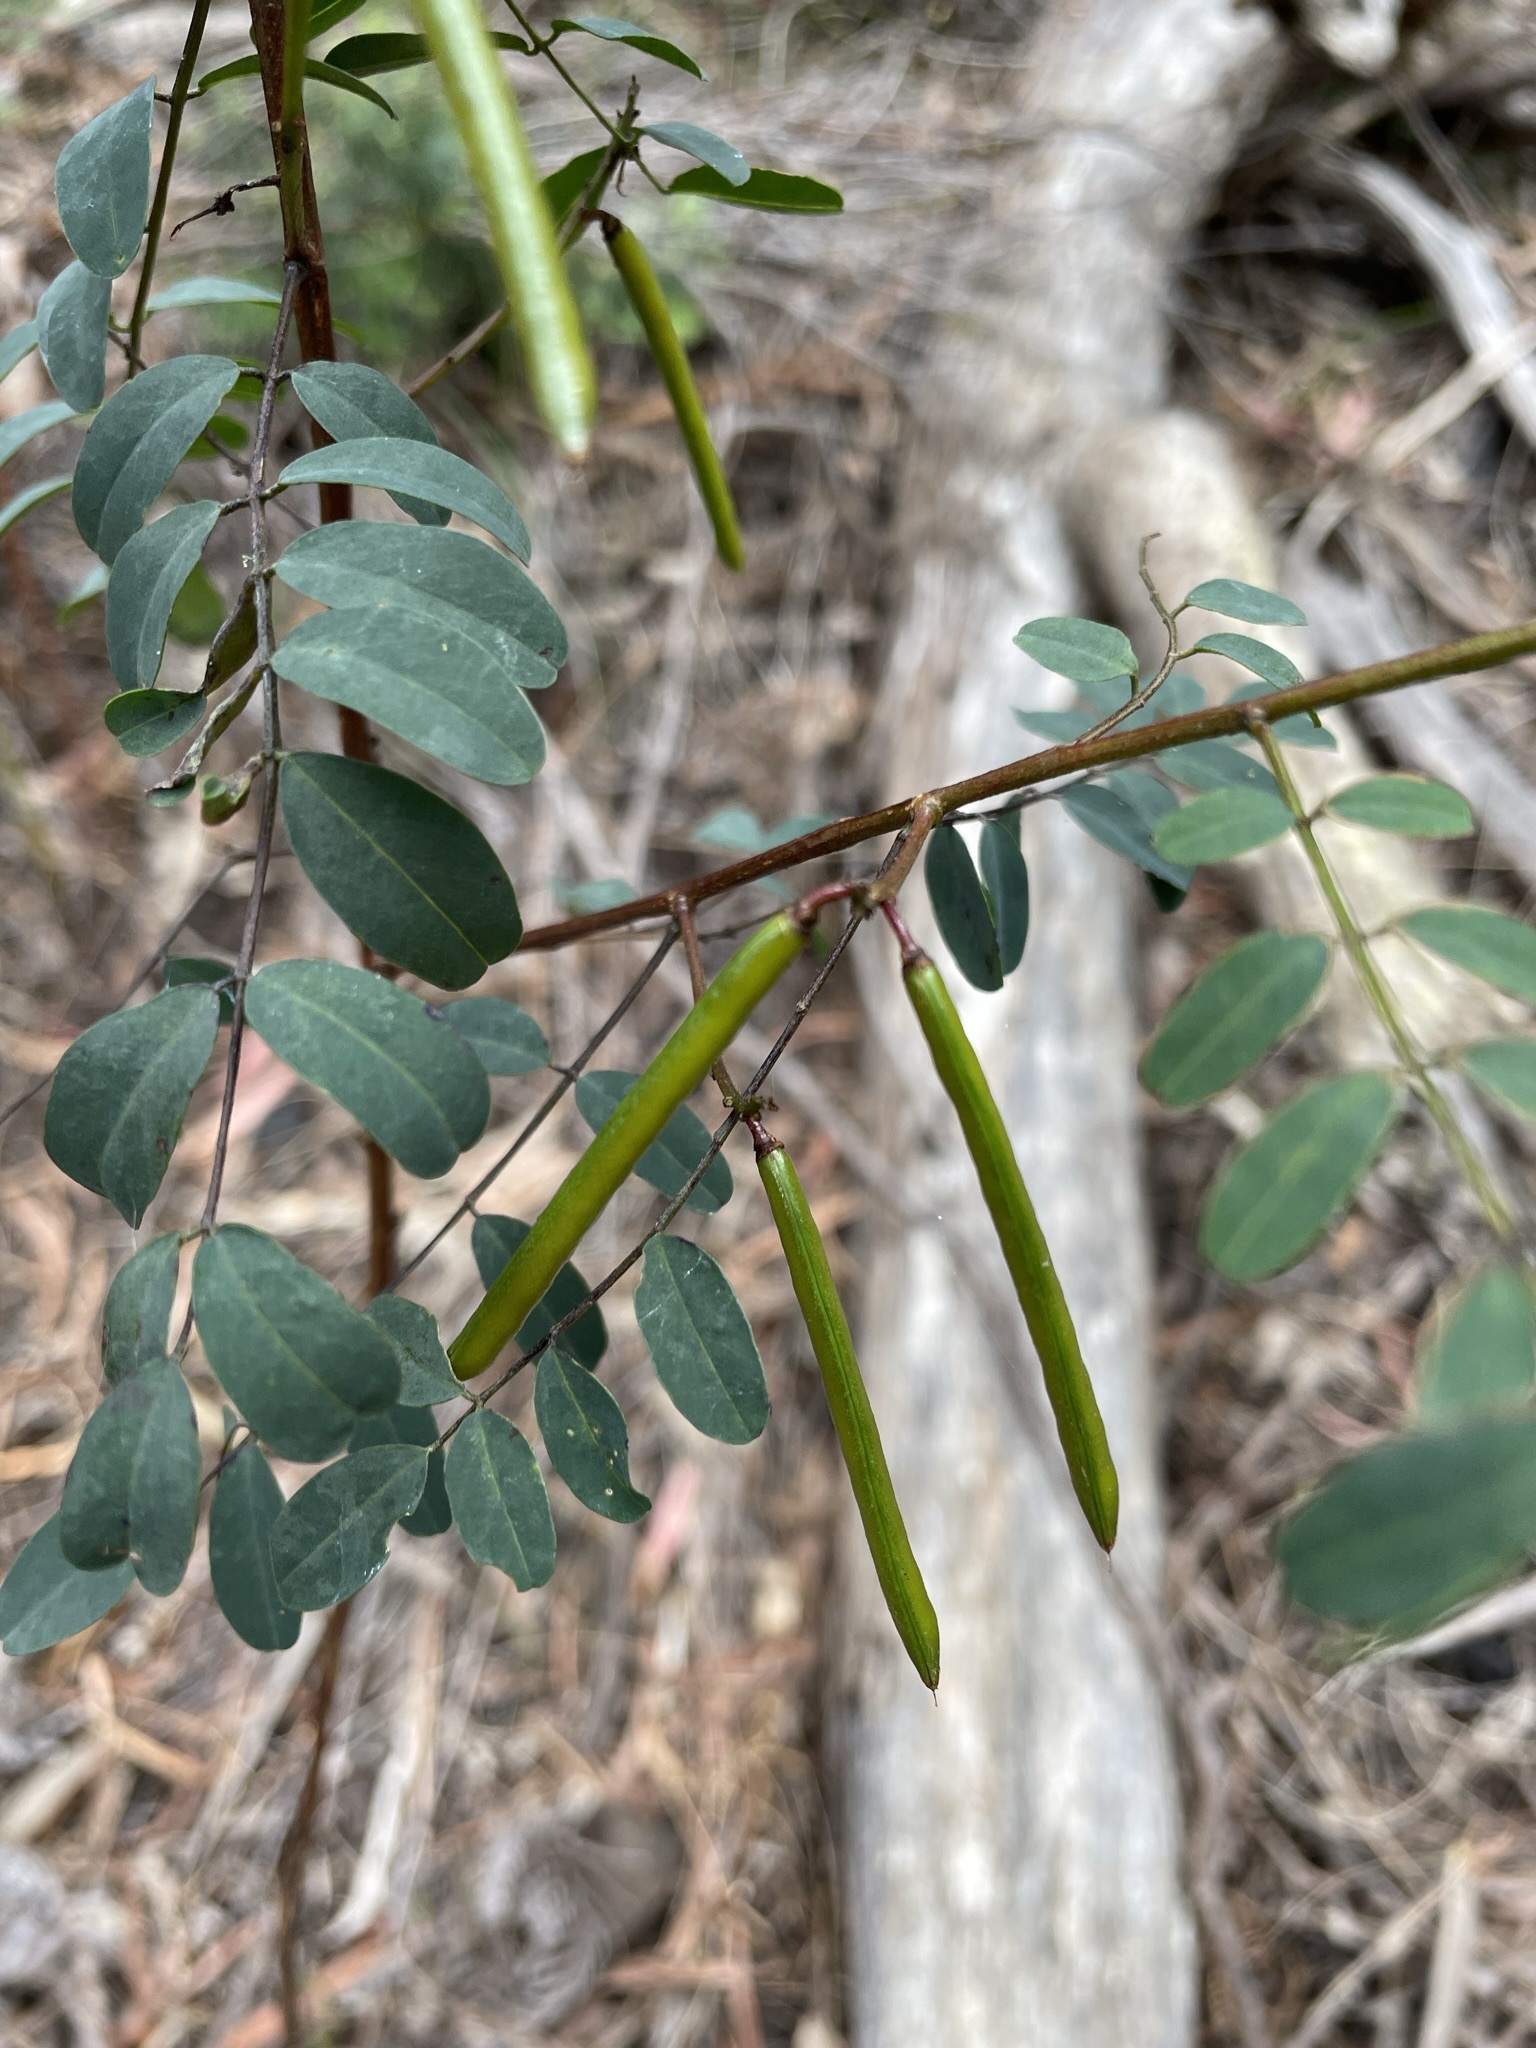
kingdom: Plantae
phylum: Tracheophyta
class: Magnoliopsida
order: Fabales
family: Fabaceae
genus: Indigofera
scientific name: Indigofera australis
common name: Australian indigo
